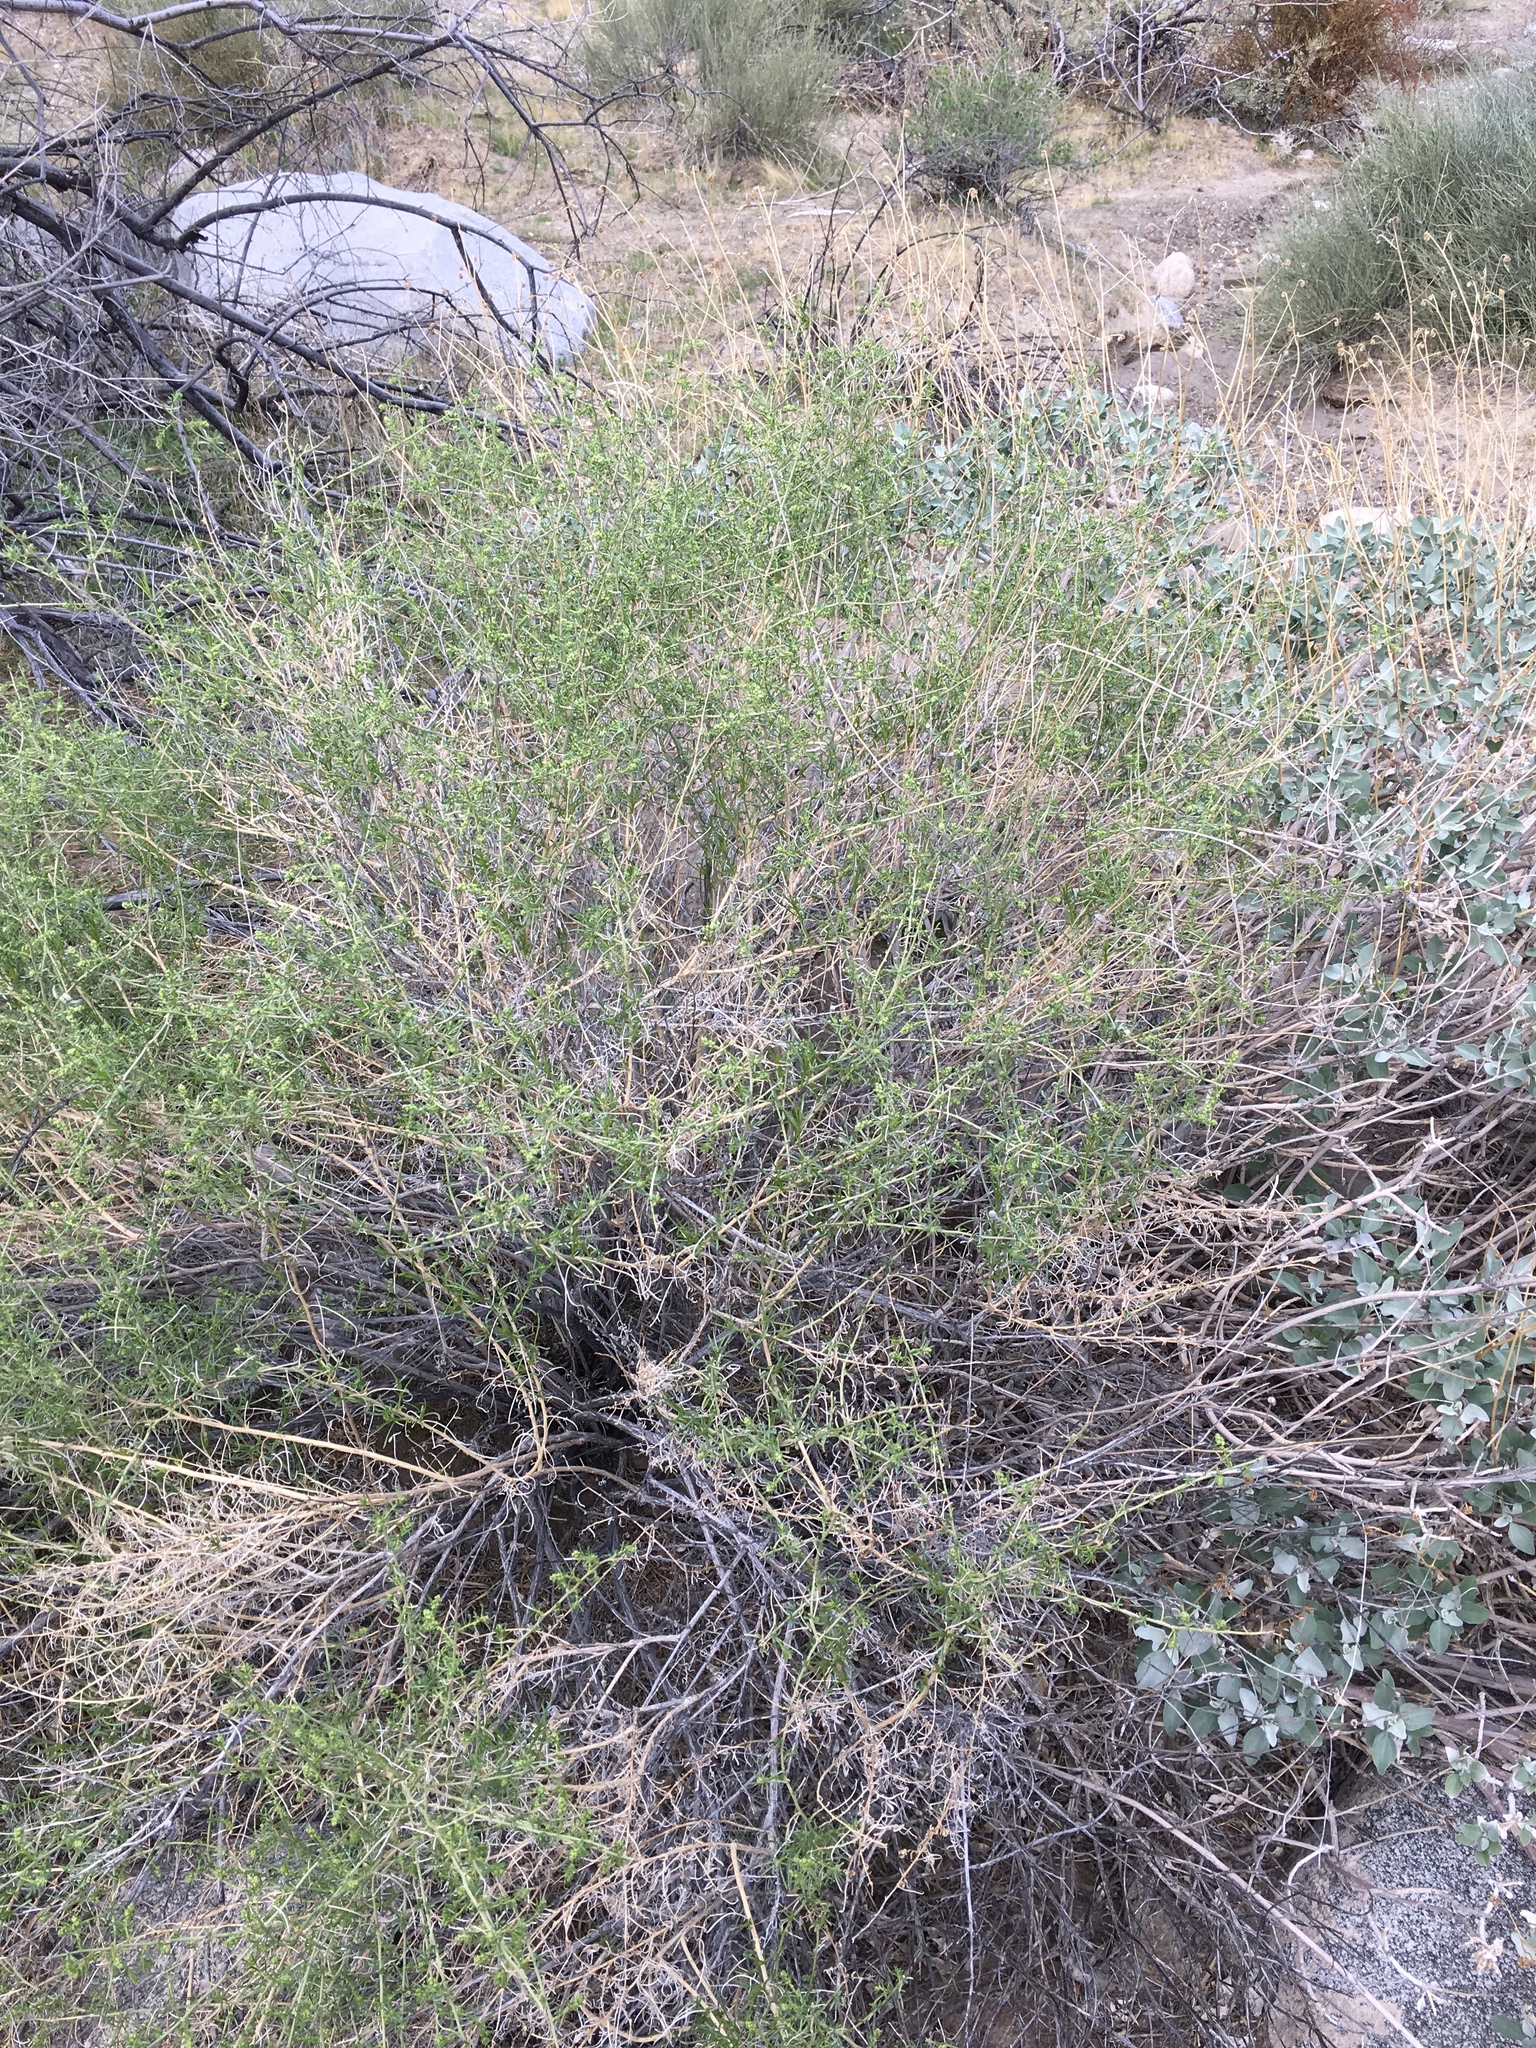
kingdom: Plantae
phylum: Tracheophyta
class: Magnoliopsida
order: Asterales
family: Asteraceae
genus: Ambrosia
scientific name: Ambrosia salsola
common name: Burrobrush
